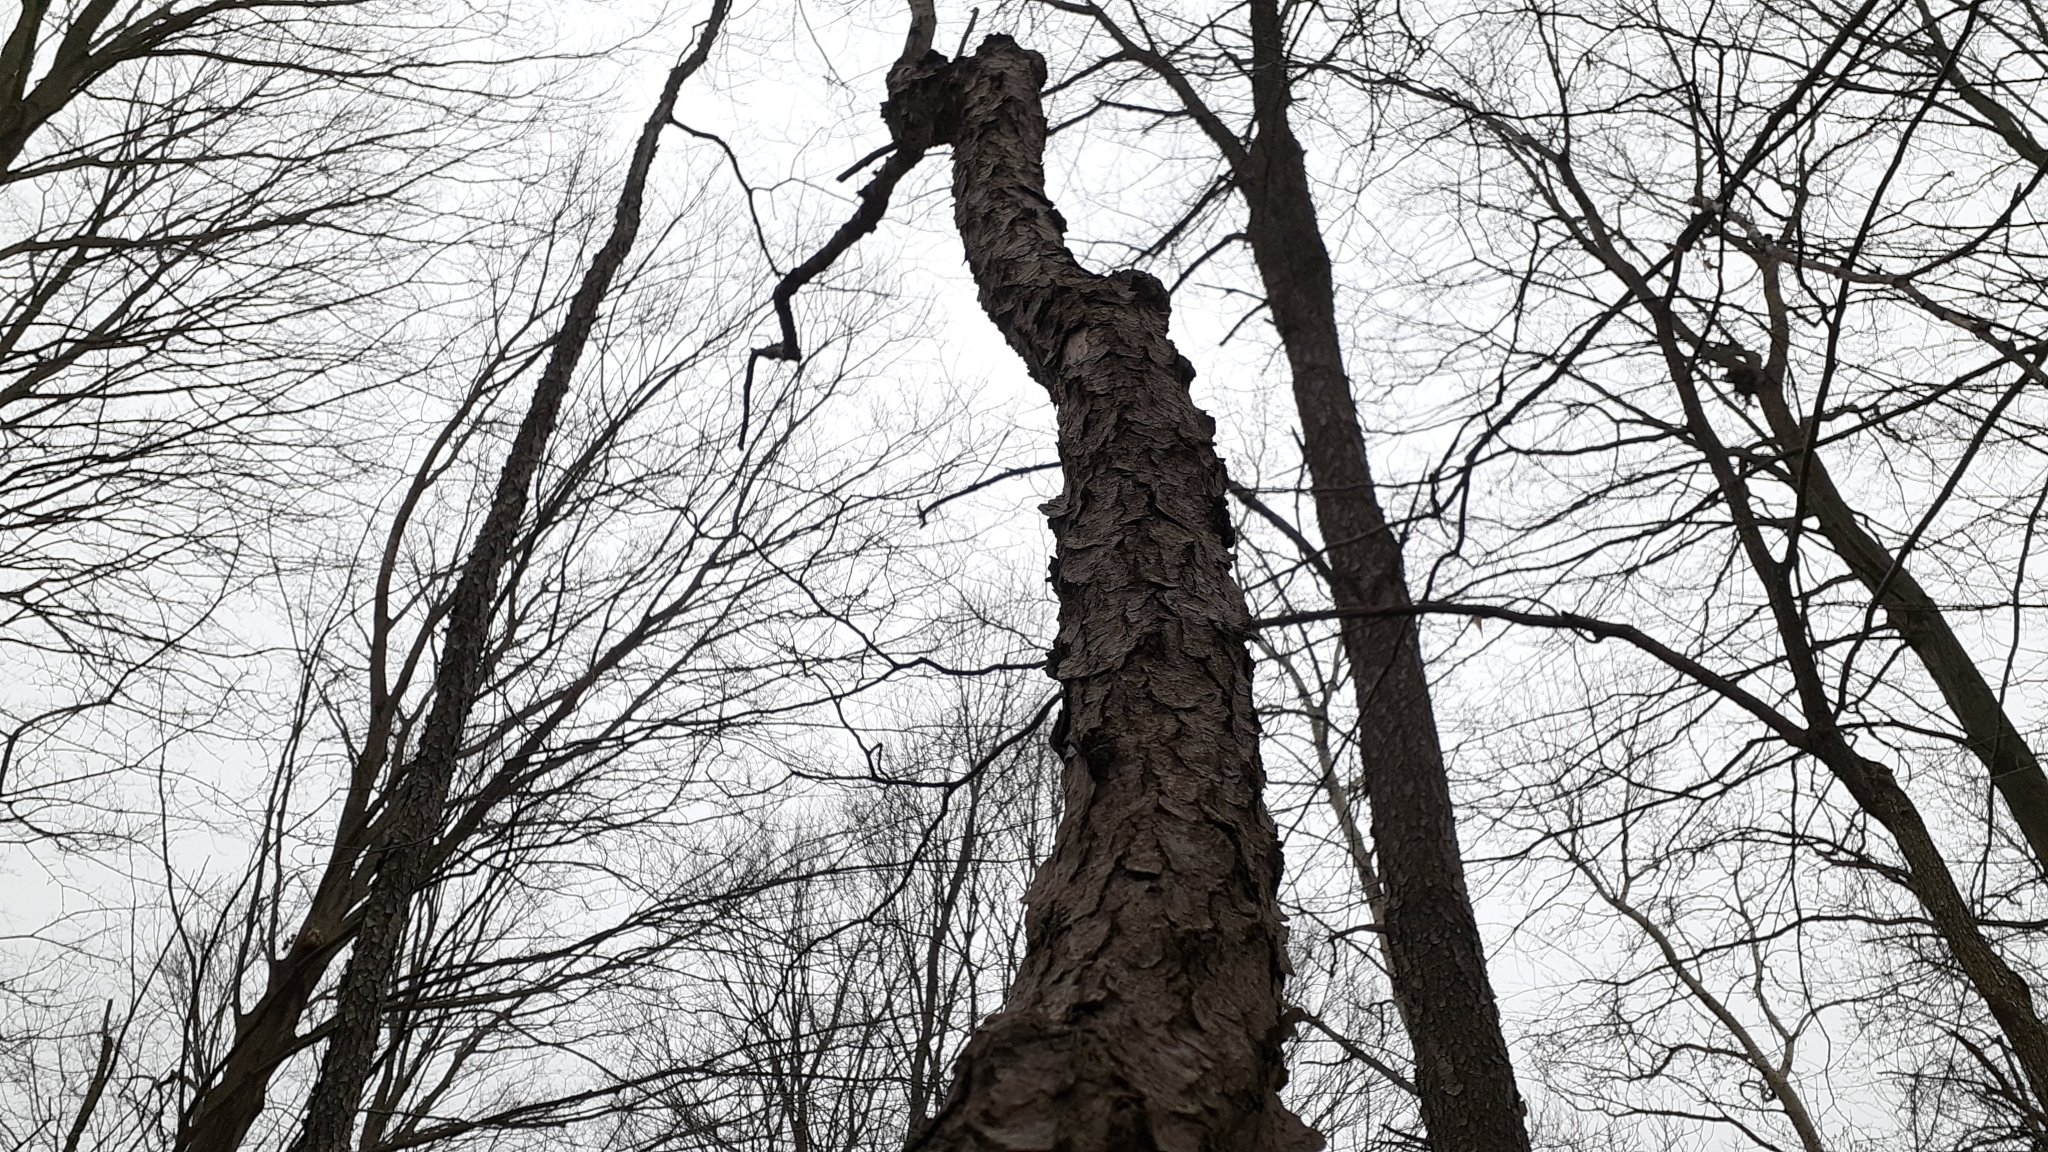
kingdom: Plantae
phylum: Tracheophyta
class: Magnoliopsida
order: Rosales
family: Rosaceae
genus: Prunus
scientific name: Prunus serotina
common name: Black cherry
